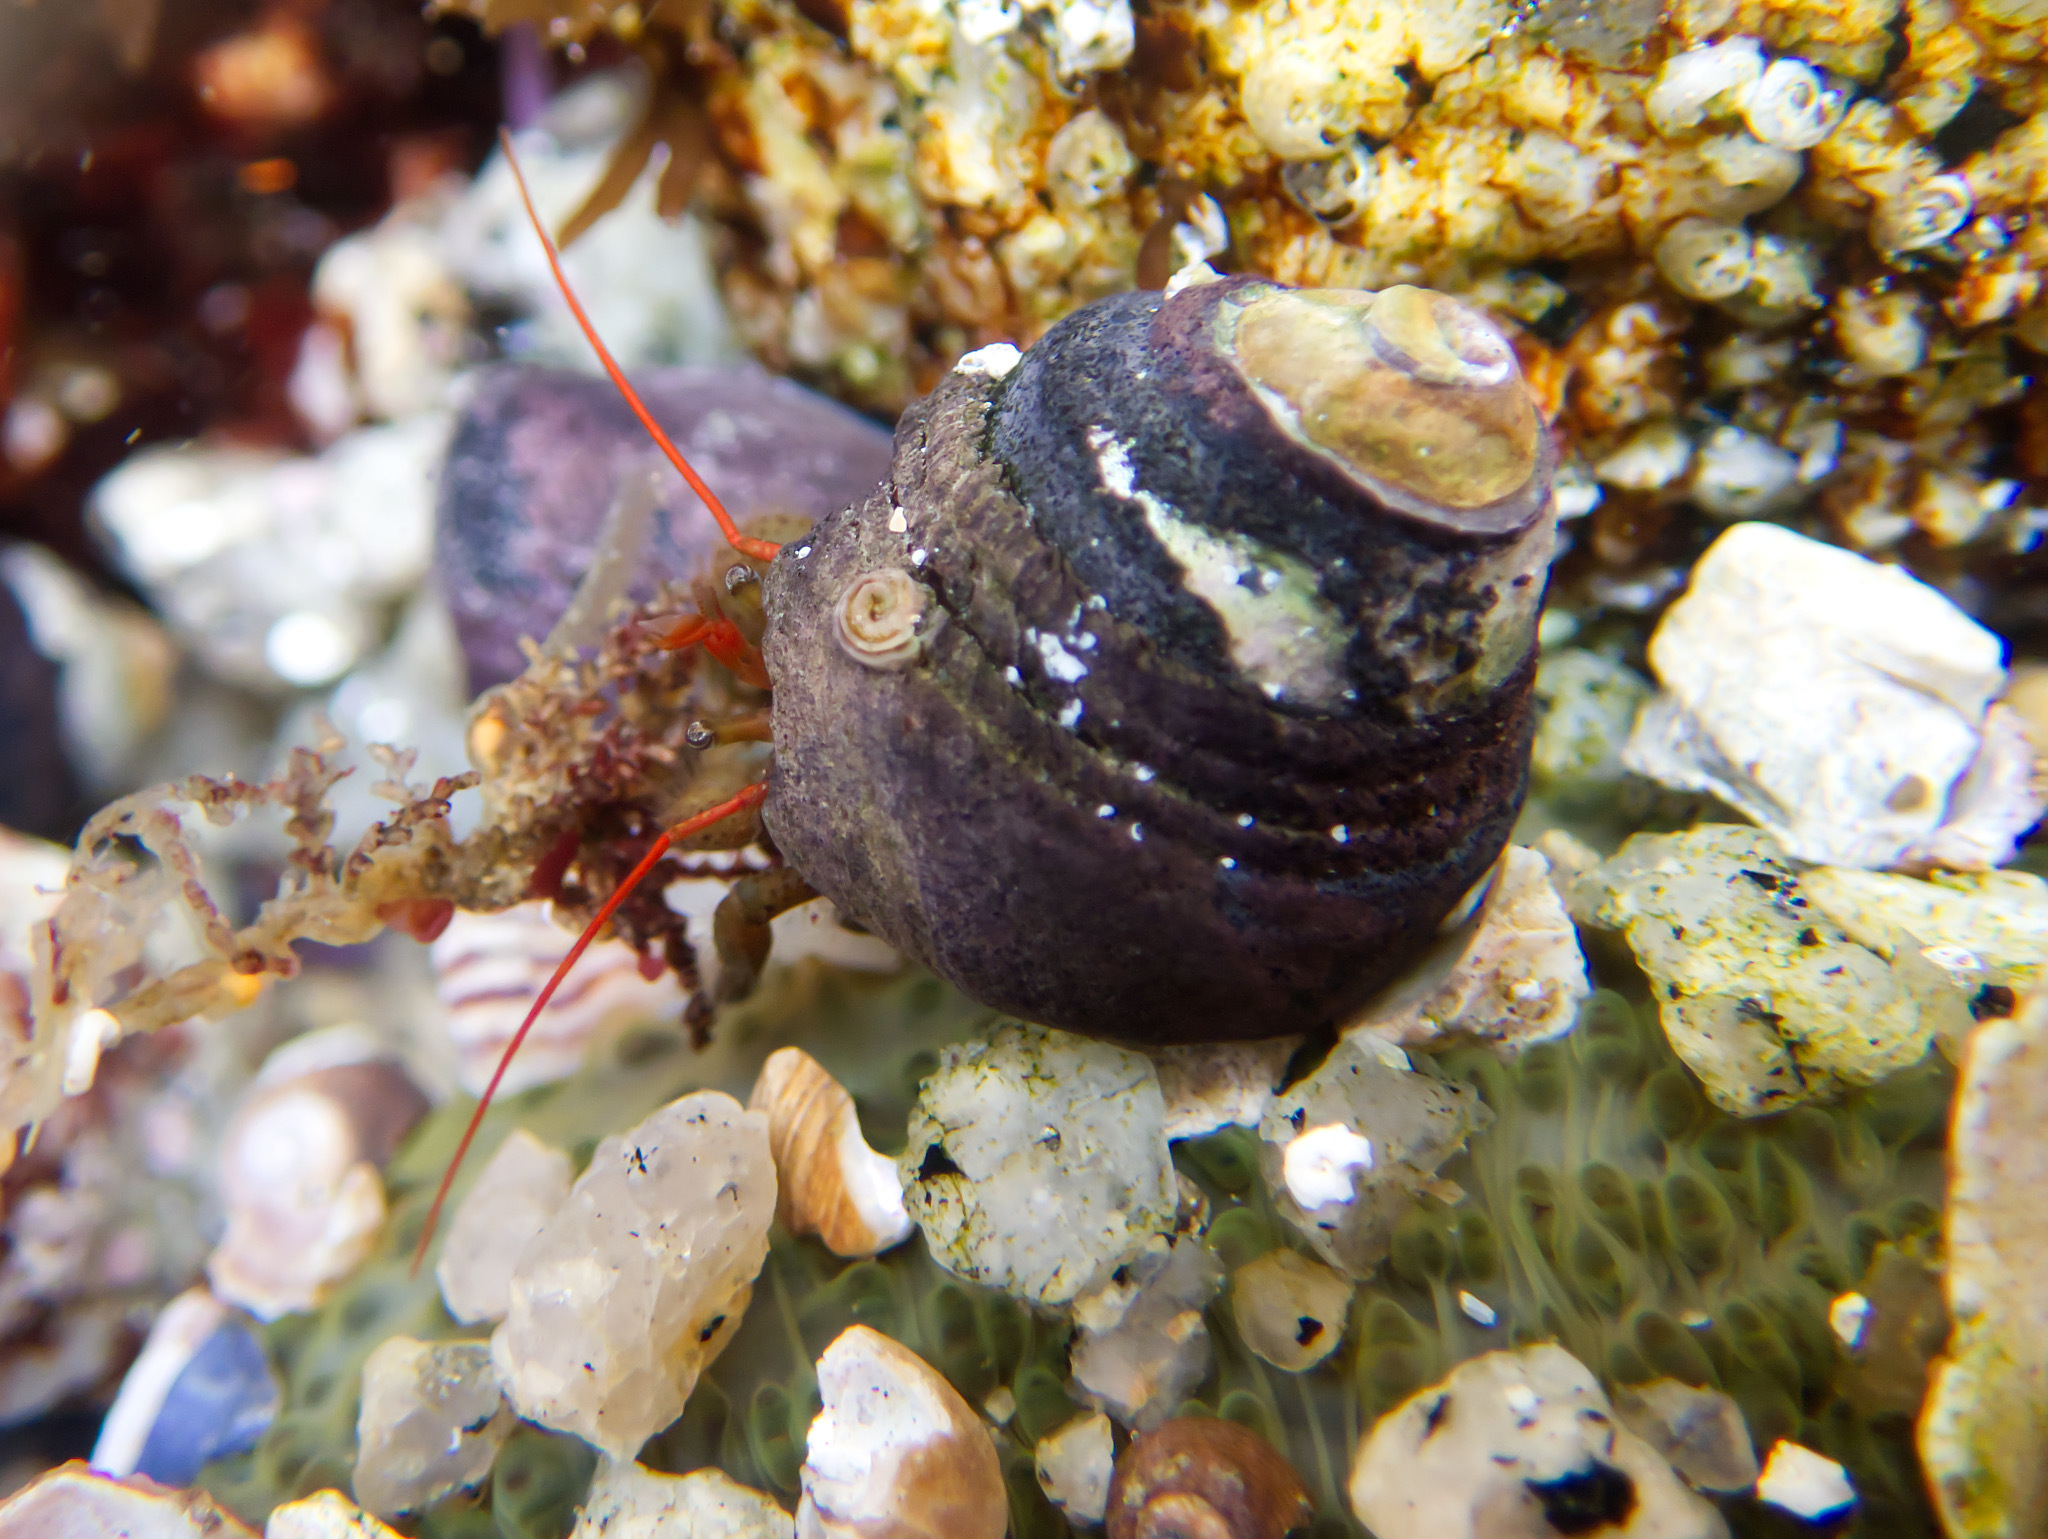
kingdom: Animalia
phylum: Arthropoda
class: Malacostraca
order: Decapoda
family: Paguridae
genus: Pagurus
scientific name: Pagurus samuelis
